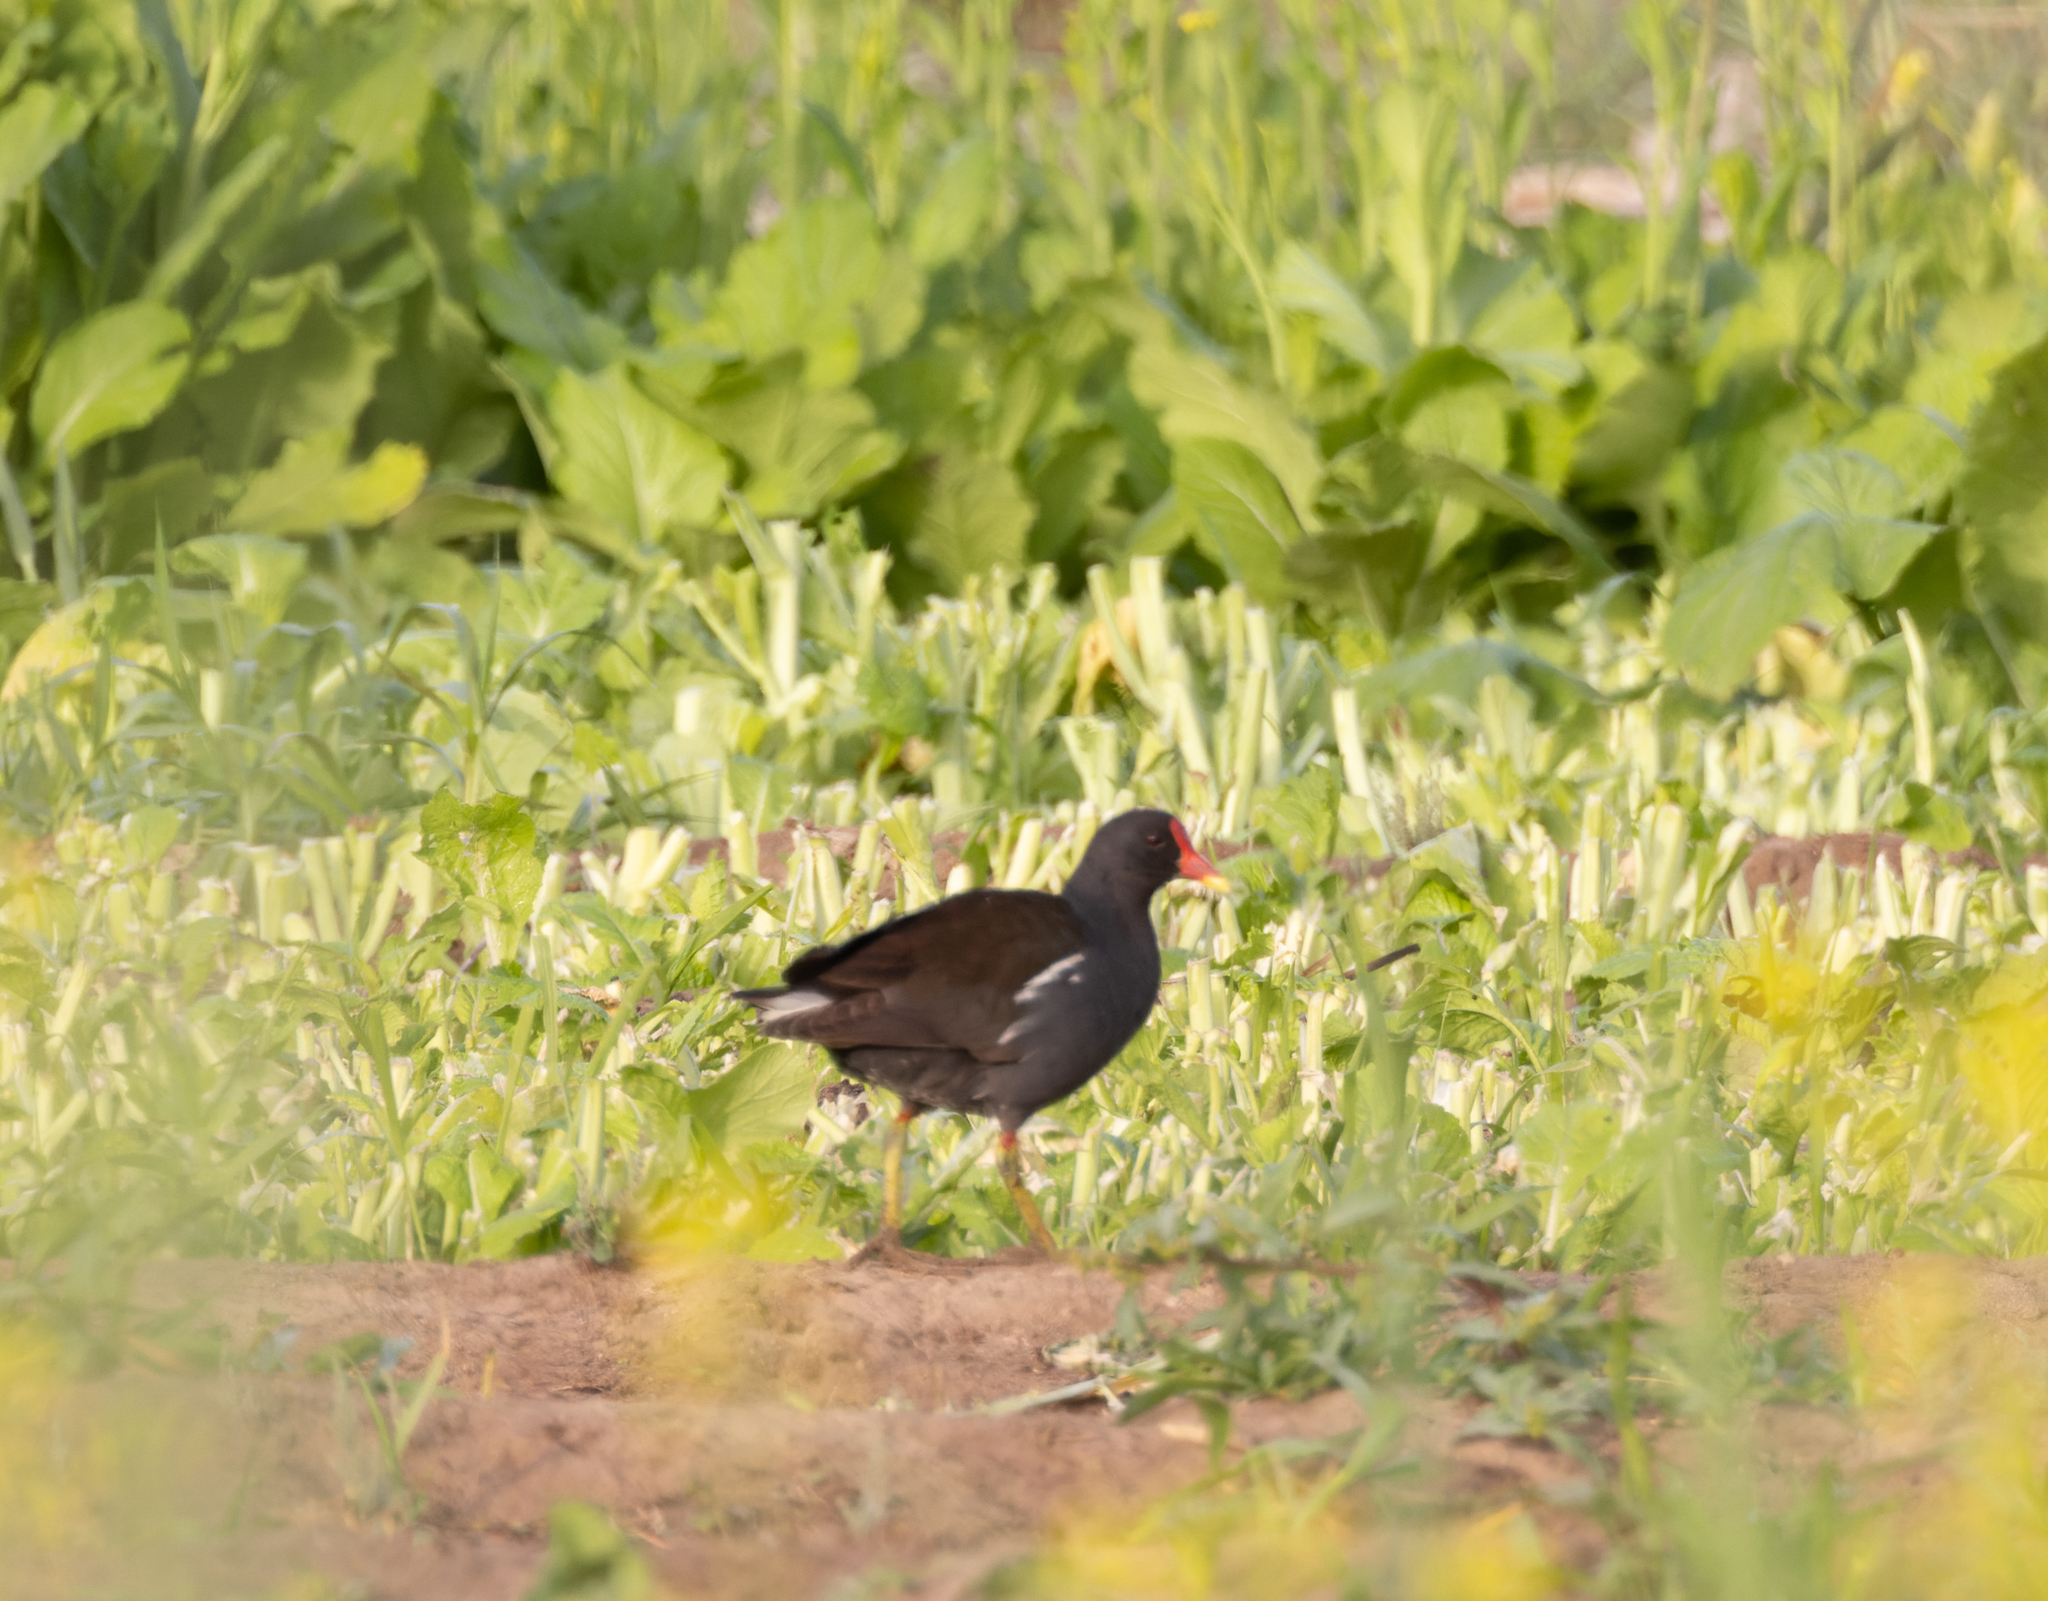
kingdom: Animalia
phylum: Chordata
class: Aves
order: Gruiformes
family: Rallidae
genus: Gallinula
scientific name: Gallinula chloropus
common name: Common moorhen
